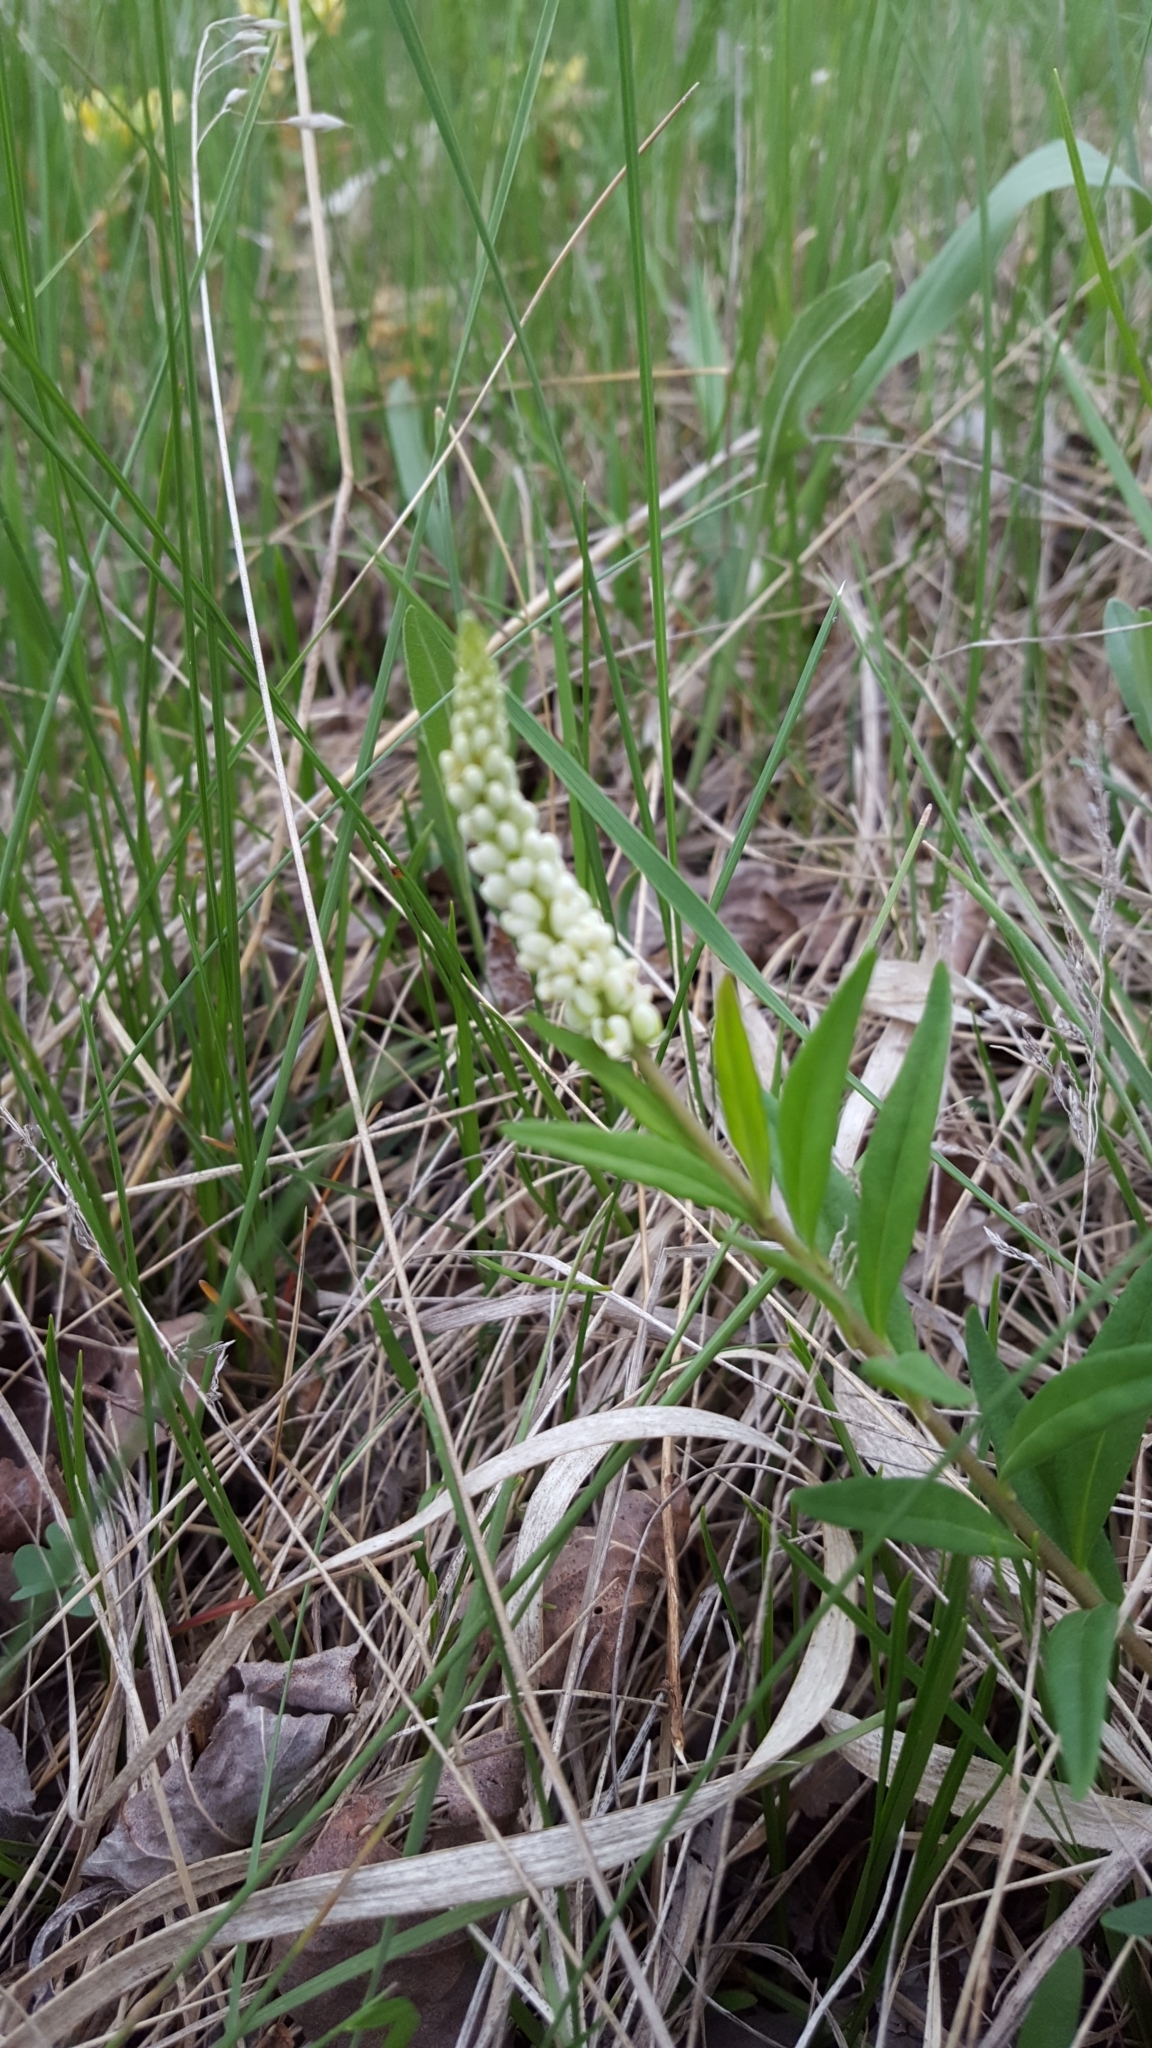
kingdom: Plantae
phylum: Tracheophyta
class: Magnoliopsida
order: Fabales
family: Polygalaceae
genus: Polygala
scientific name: Polygala senega
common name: Seneca snakeroot
